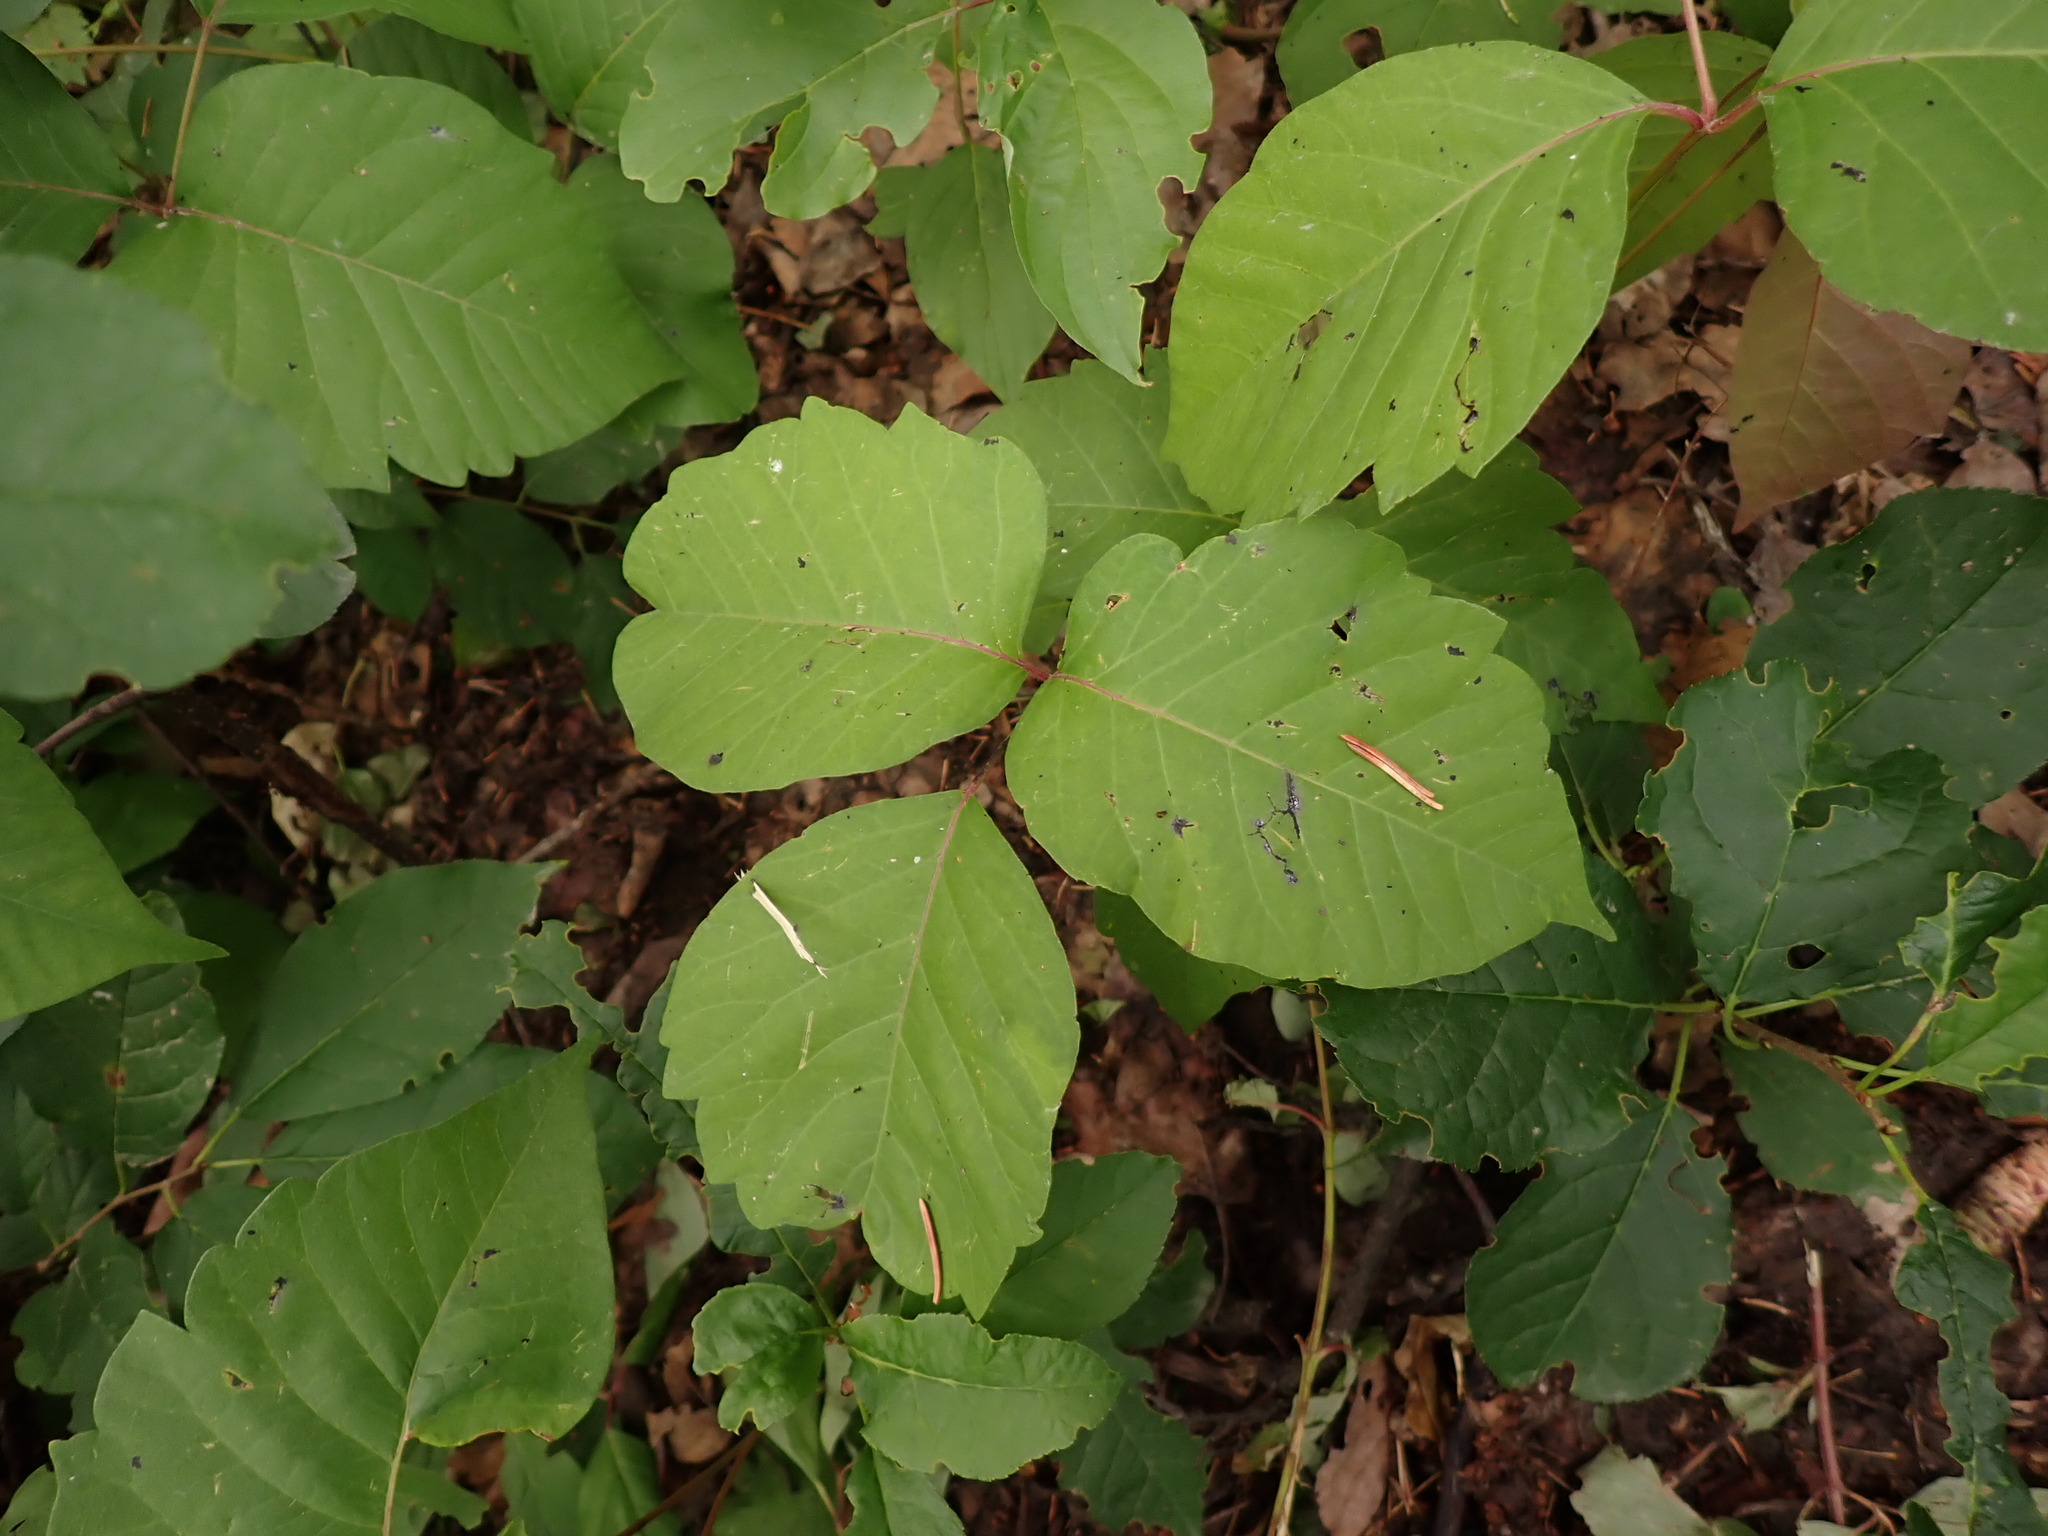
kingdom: Plantae
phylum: Tracheophyta
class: Magnoliopsida
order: Sapindales
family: Anacardiaceae
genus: Toxicodendron
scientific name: Toxicodendron rydbergii
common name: Rydberg's poison-ivy
